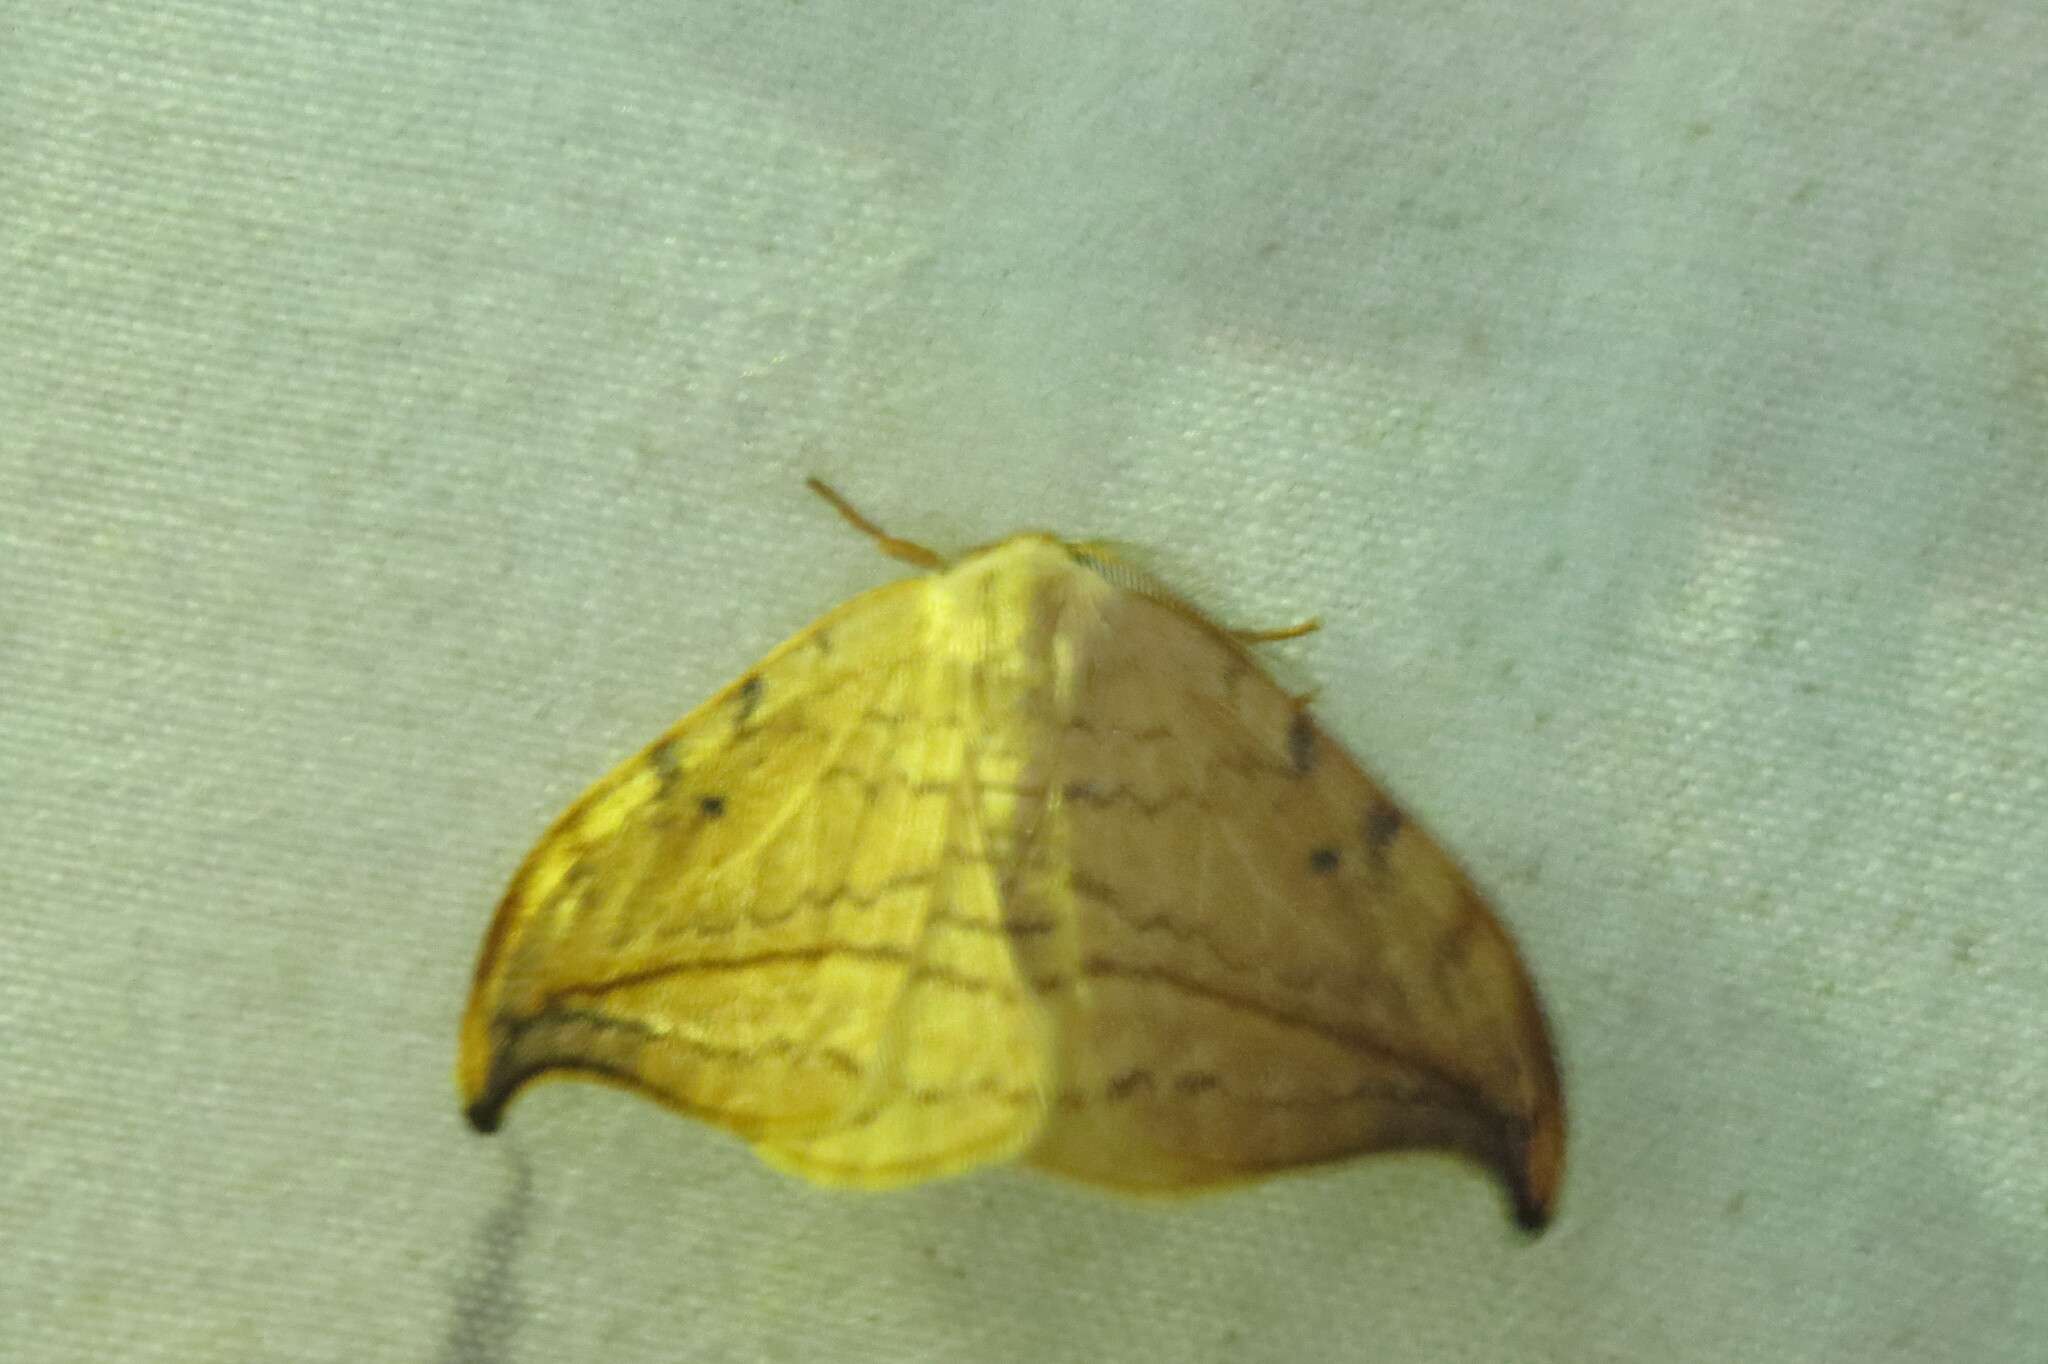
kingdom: Animalia
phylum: Arthropoda
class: Insecta
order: Lepidoptera
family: Drepanidae
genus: Drepana
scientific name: Drepana arcuata
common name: Arched hooktip moth
